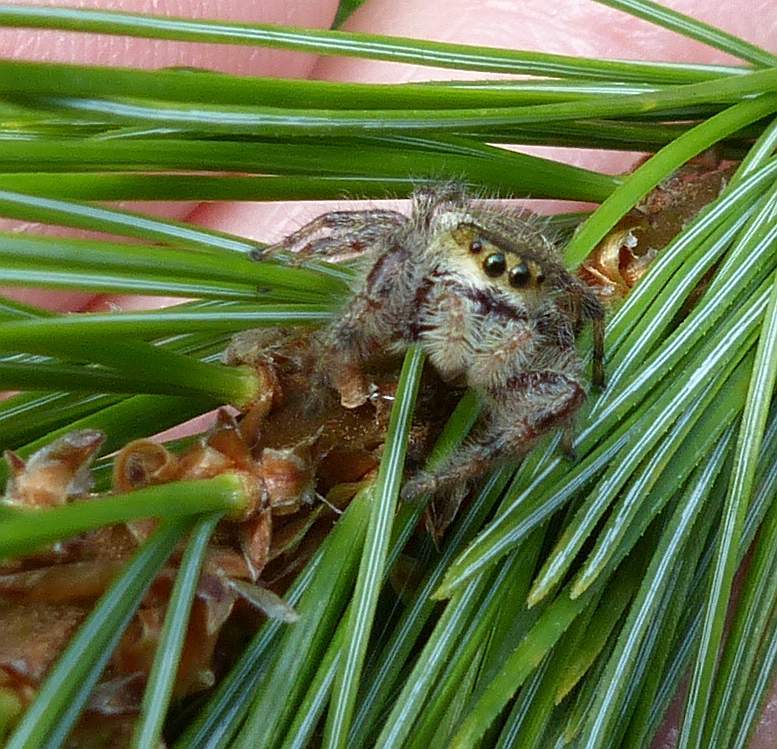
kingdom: Animalia
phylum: Arthropoda
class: Arachnida
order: Araneae
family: Salticidae
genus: Phidippus
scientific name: Phidippus clarus
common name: Brilliant jumping spider
